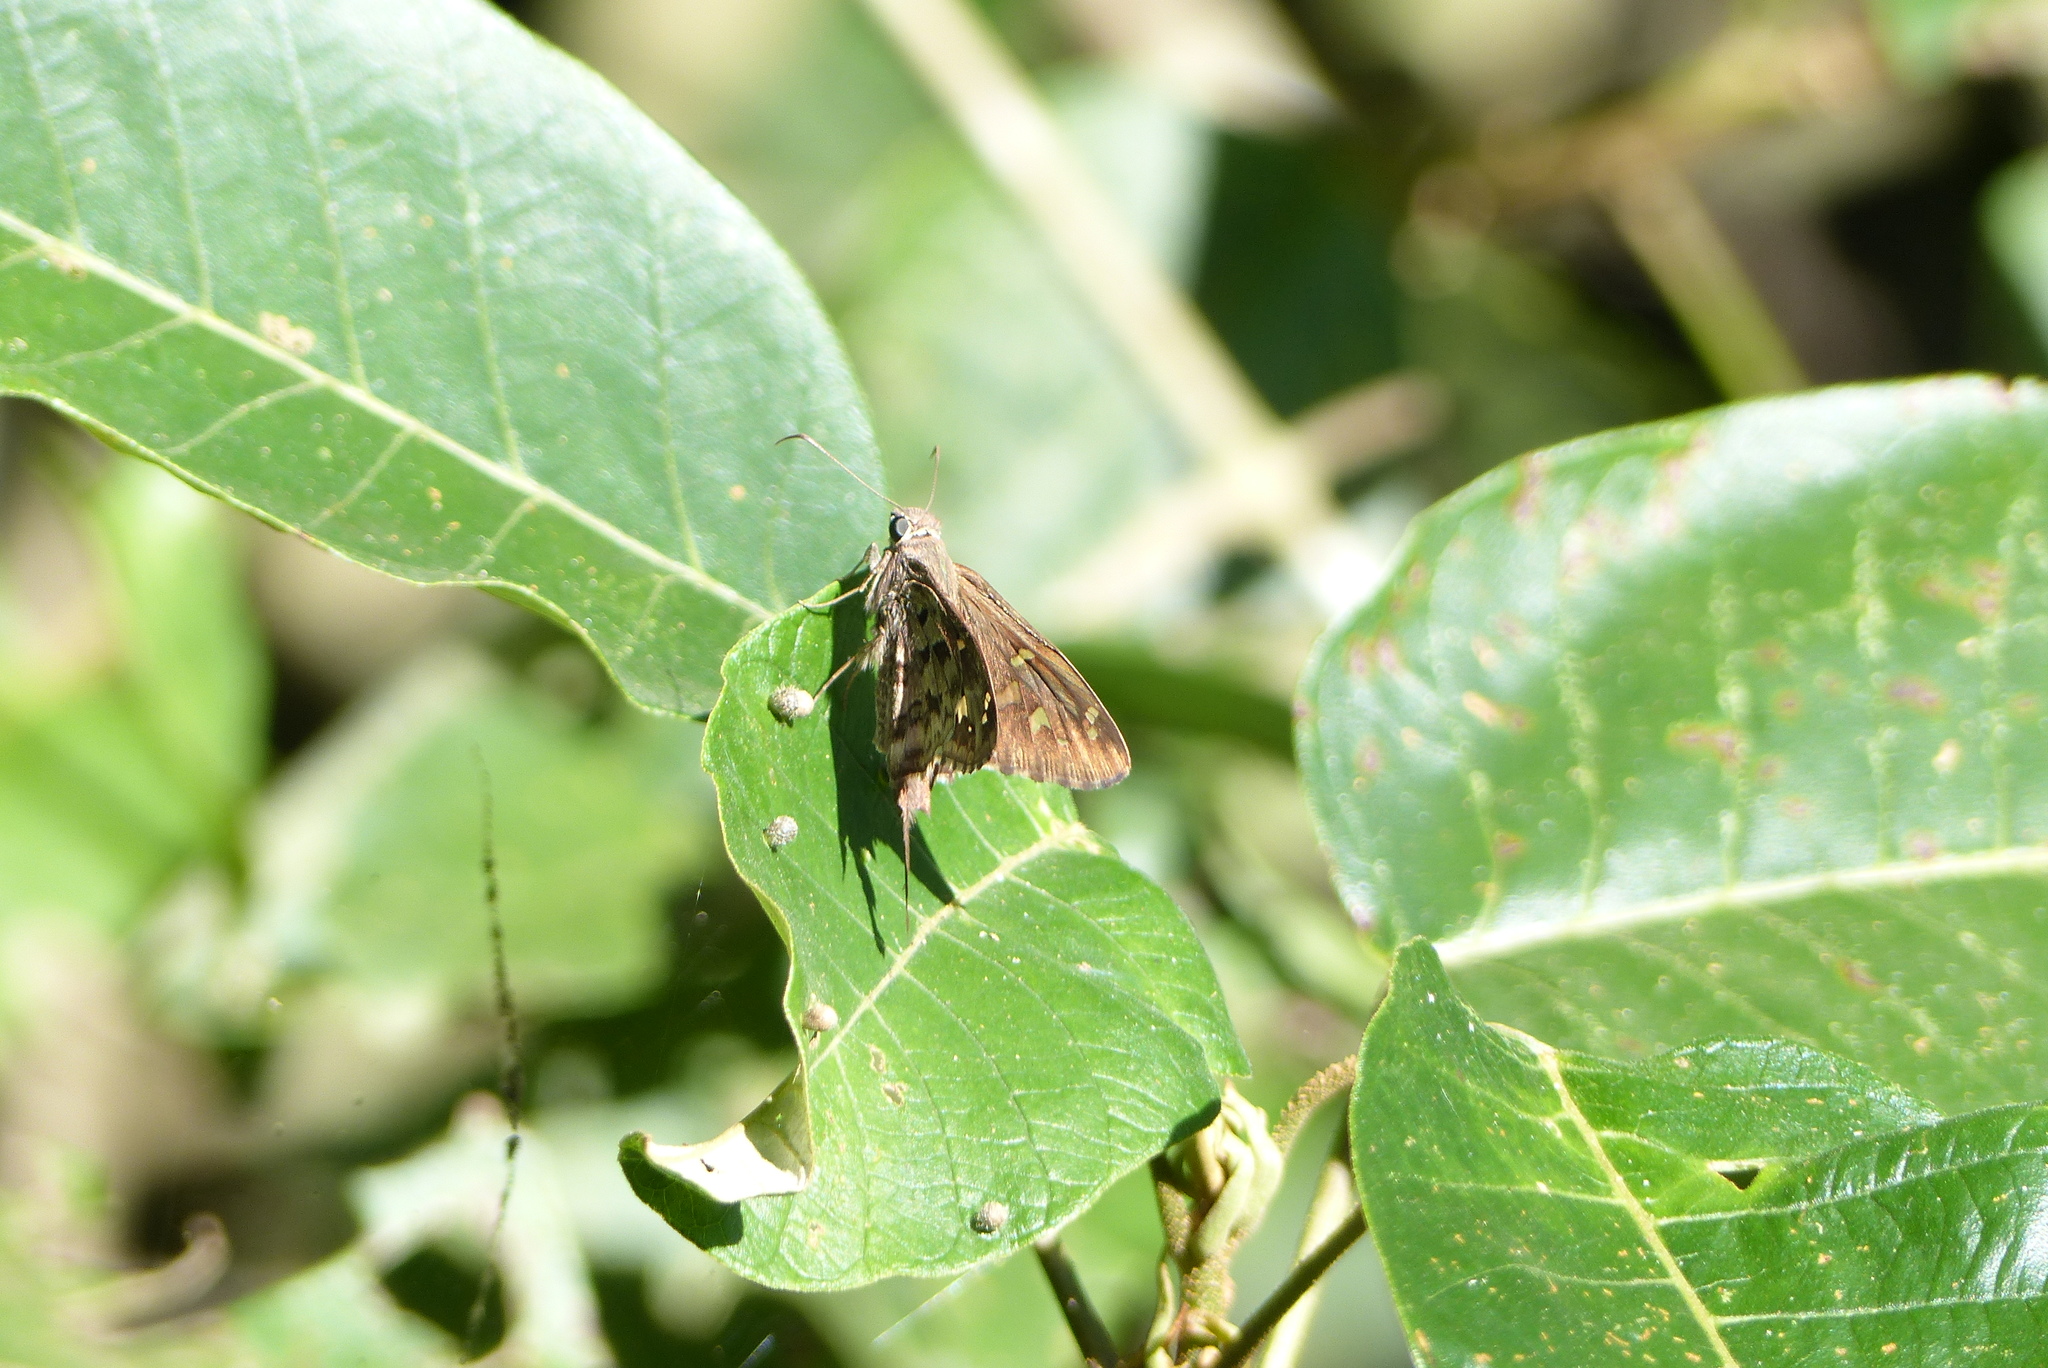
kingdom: Animalia
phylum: Arthropoda
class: Insecta
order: Lepidoptera
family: Hesperiidae
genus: Thorybes
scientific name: Thorybes
